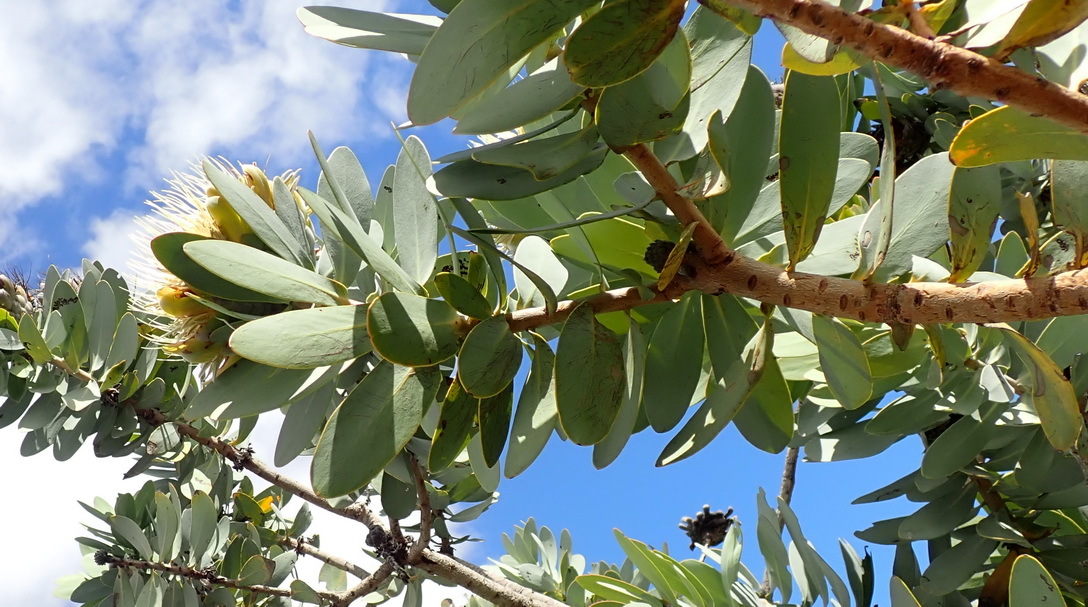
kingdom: Plantae
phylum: Tracheophyta
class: Magnoliopsida
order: Proteales
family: Proteaceae
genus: Protea
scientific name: Protea nitida
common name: Tree protea
